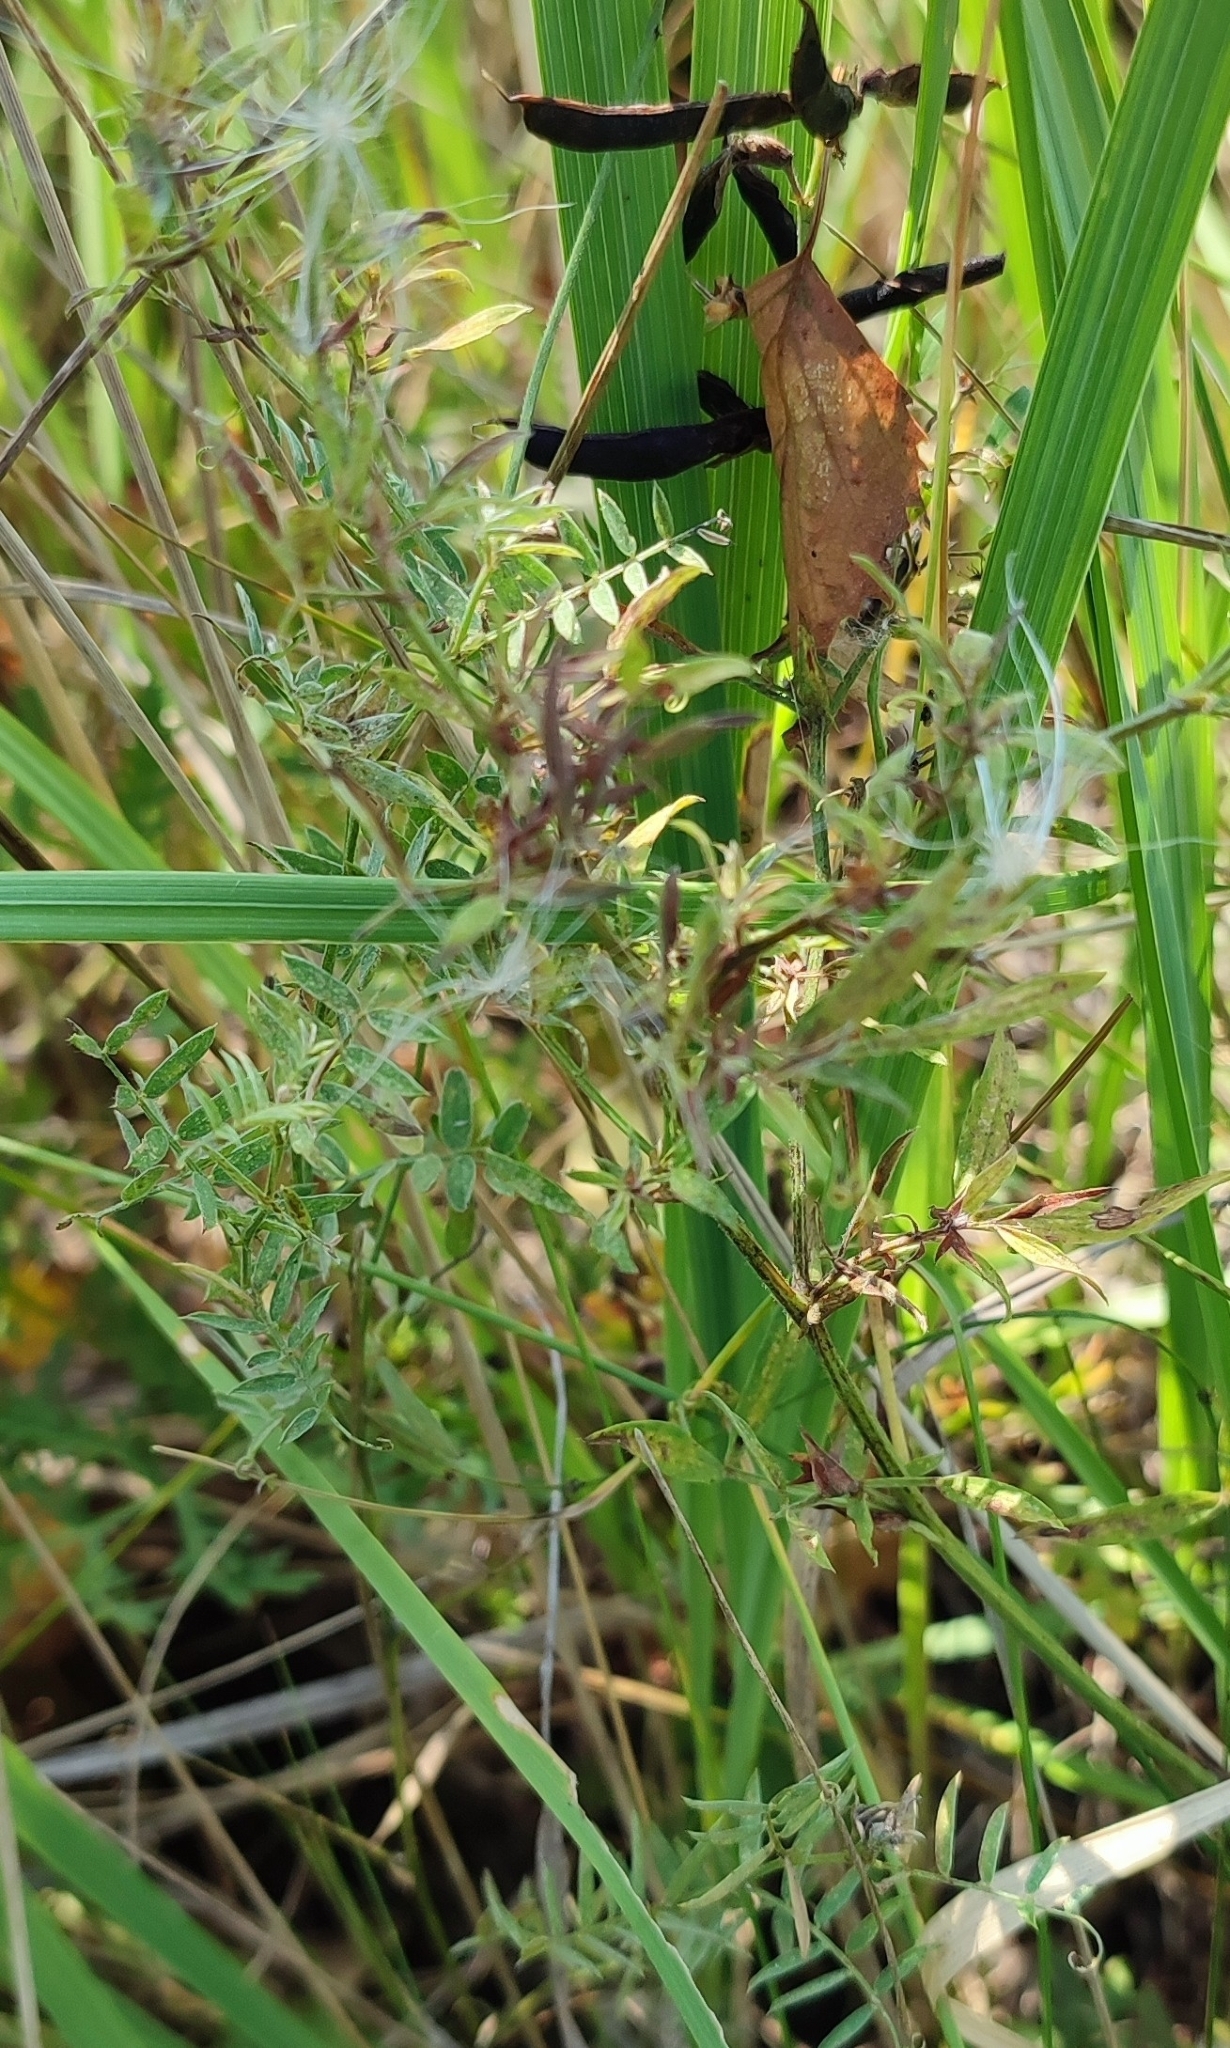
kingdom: Plantae
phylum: Tracheophyta
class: Magnoliopsida
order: Fabales
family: Fabaceae
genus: Vicia
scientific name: Vicia cracca
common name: Bird vetch
